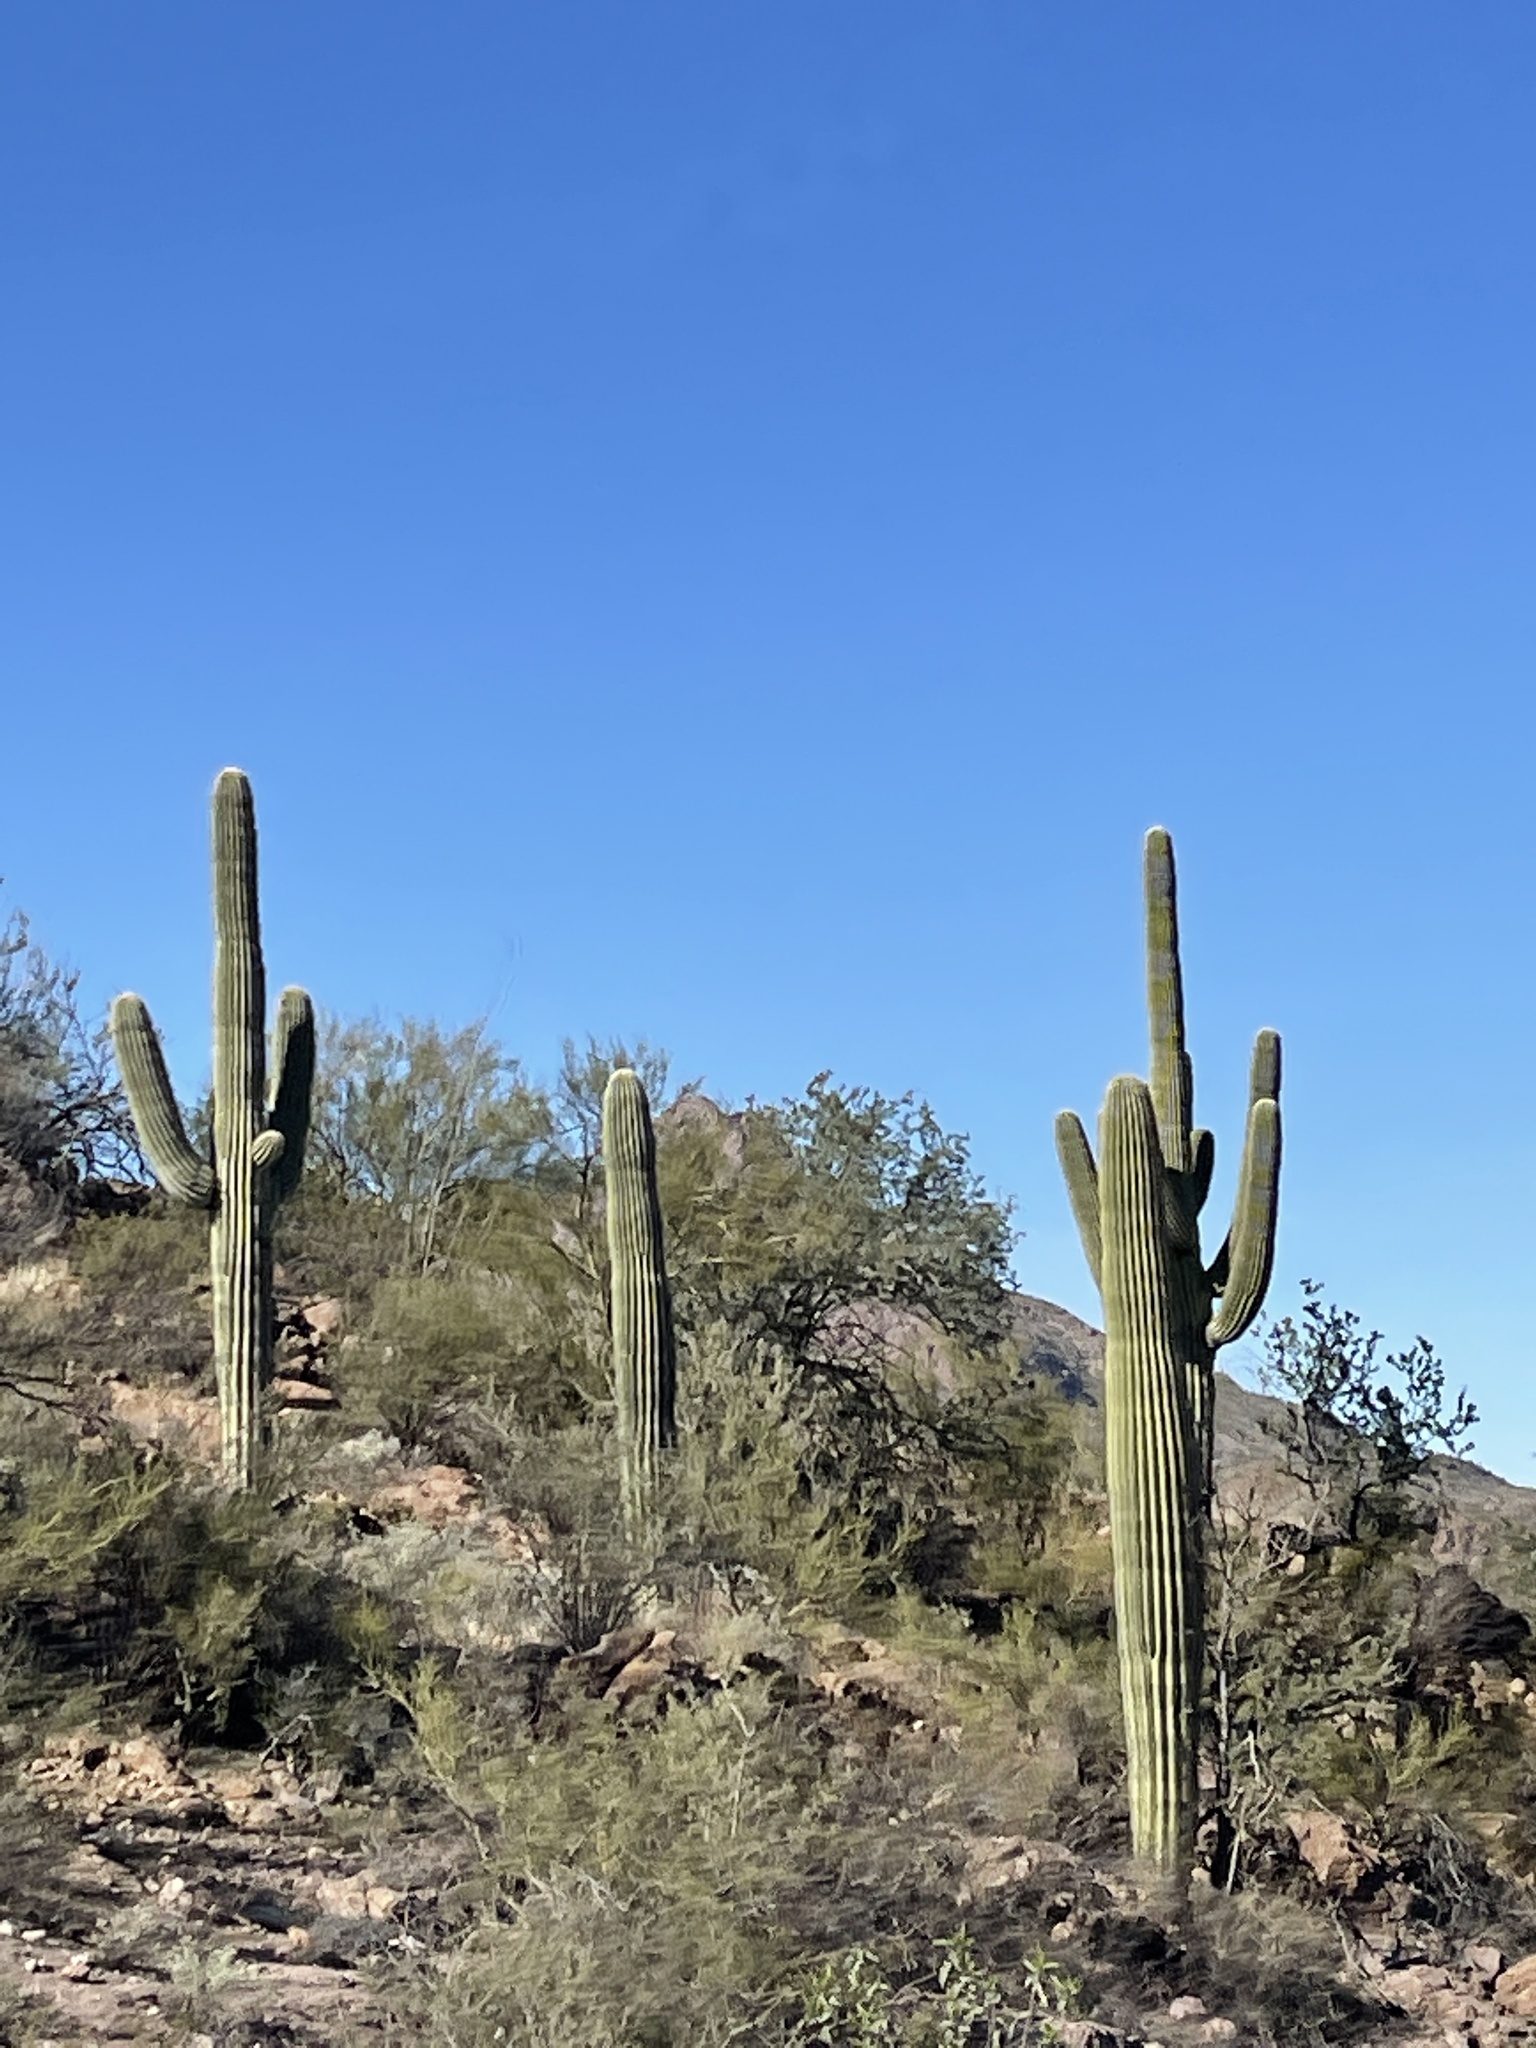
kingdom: Plantae
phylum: Tracheophyta
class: Magnoliopsida
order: Caryophyllales
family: Cactaceae
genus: Carnegiea
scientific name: Carnegiea gigantea
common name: Saguaro
